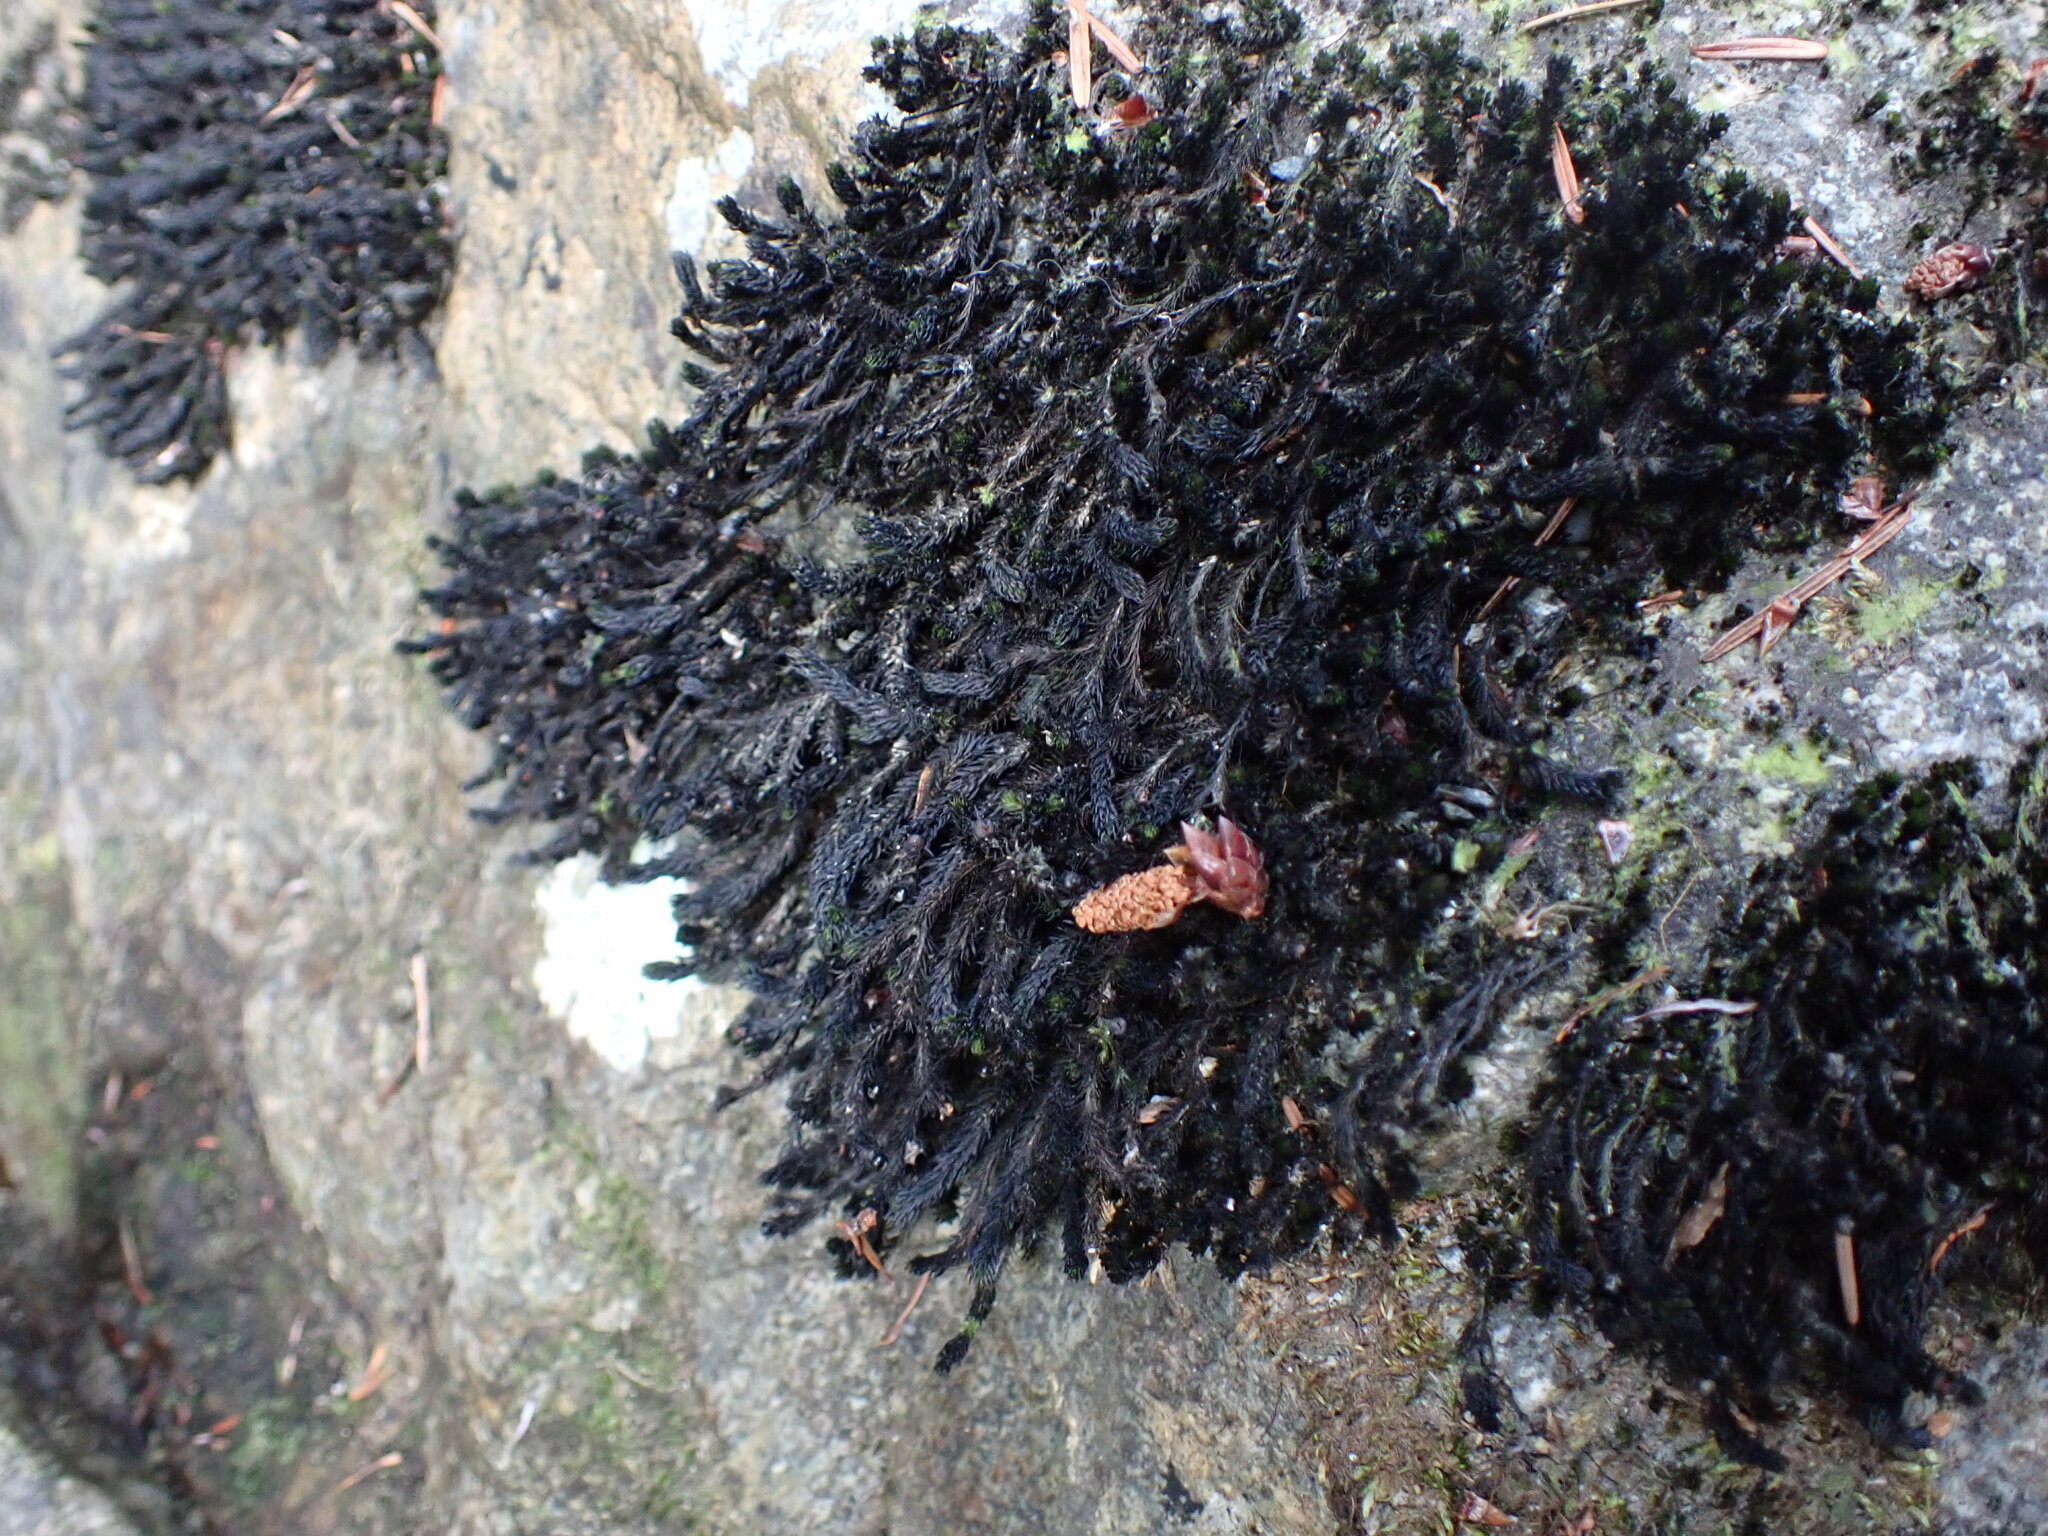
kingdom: Plantae
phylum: Bryophyta
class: Bryopsida
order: Scouleriales
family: Scouleriaceae
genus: Scouleria
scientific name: Scouleria aquatica
